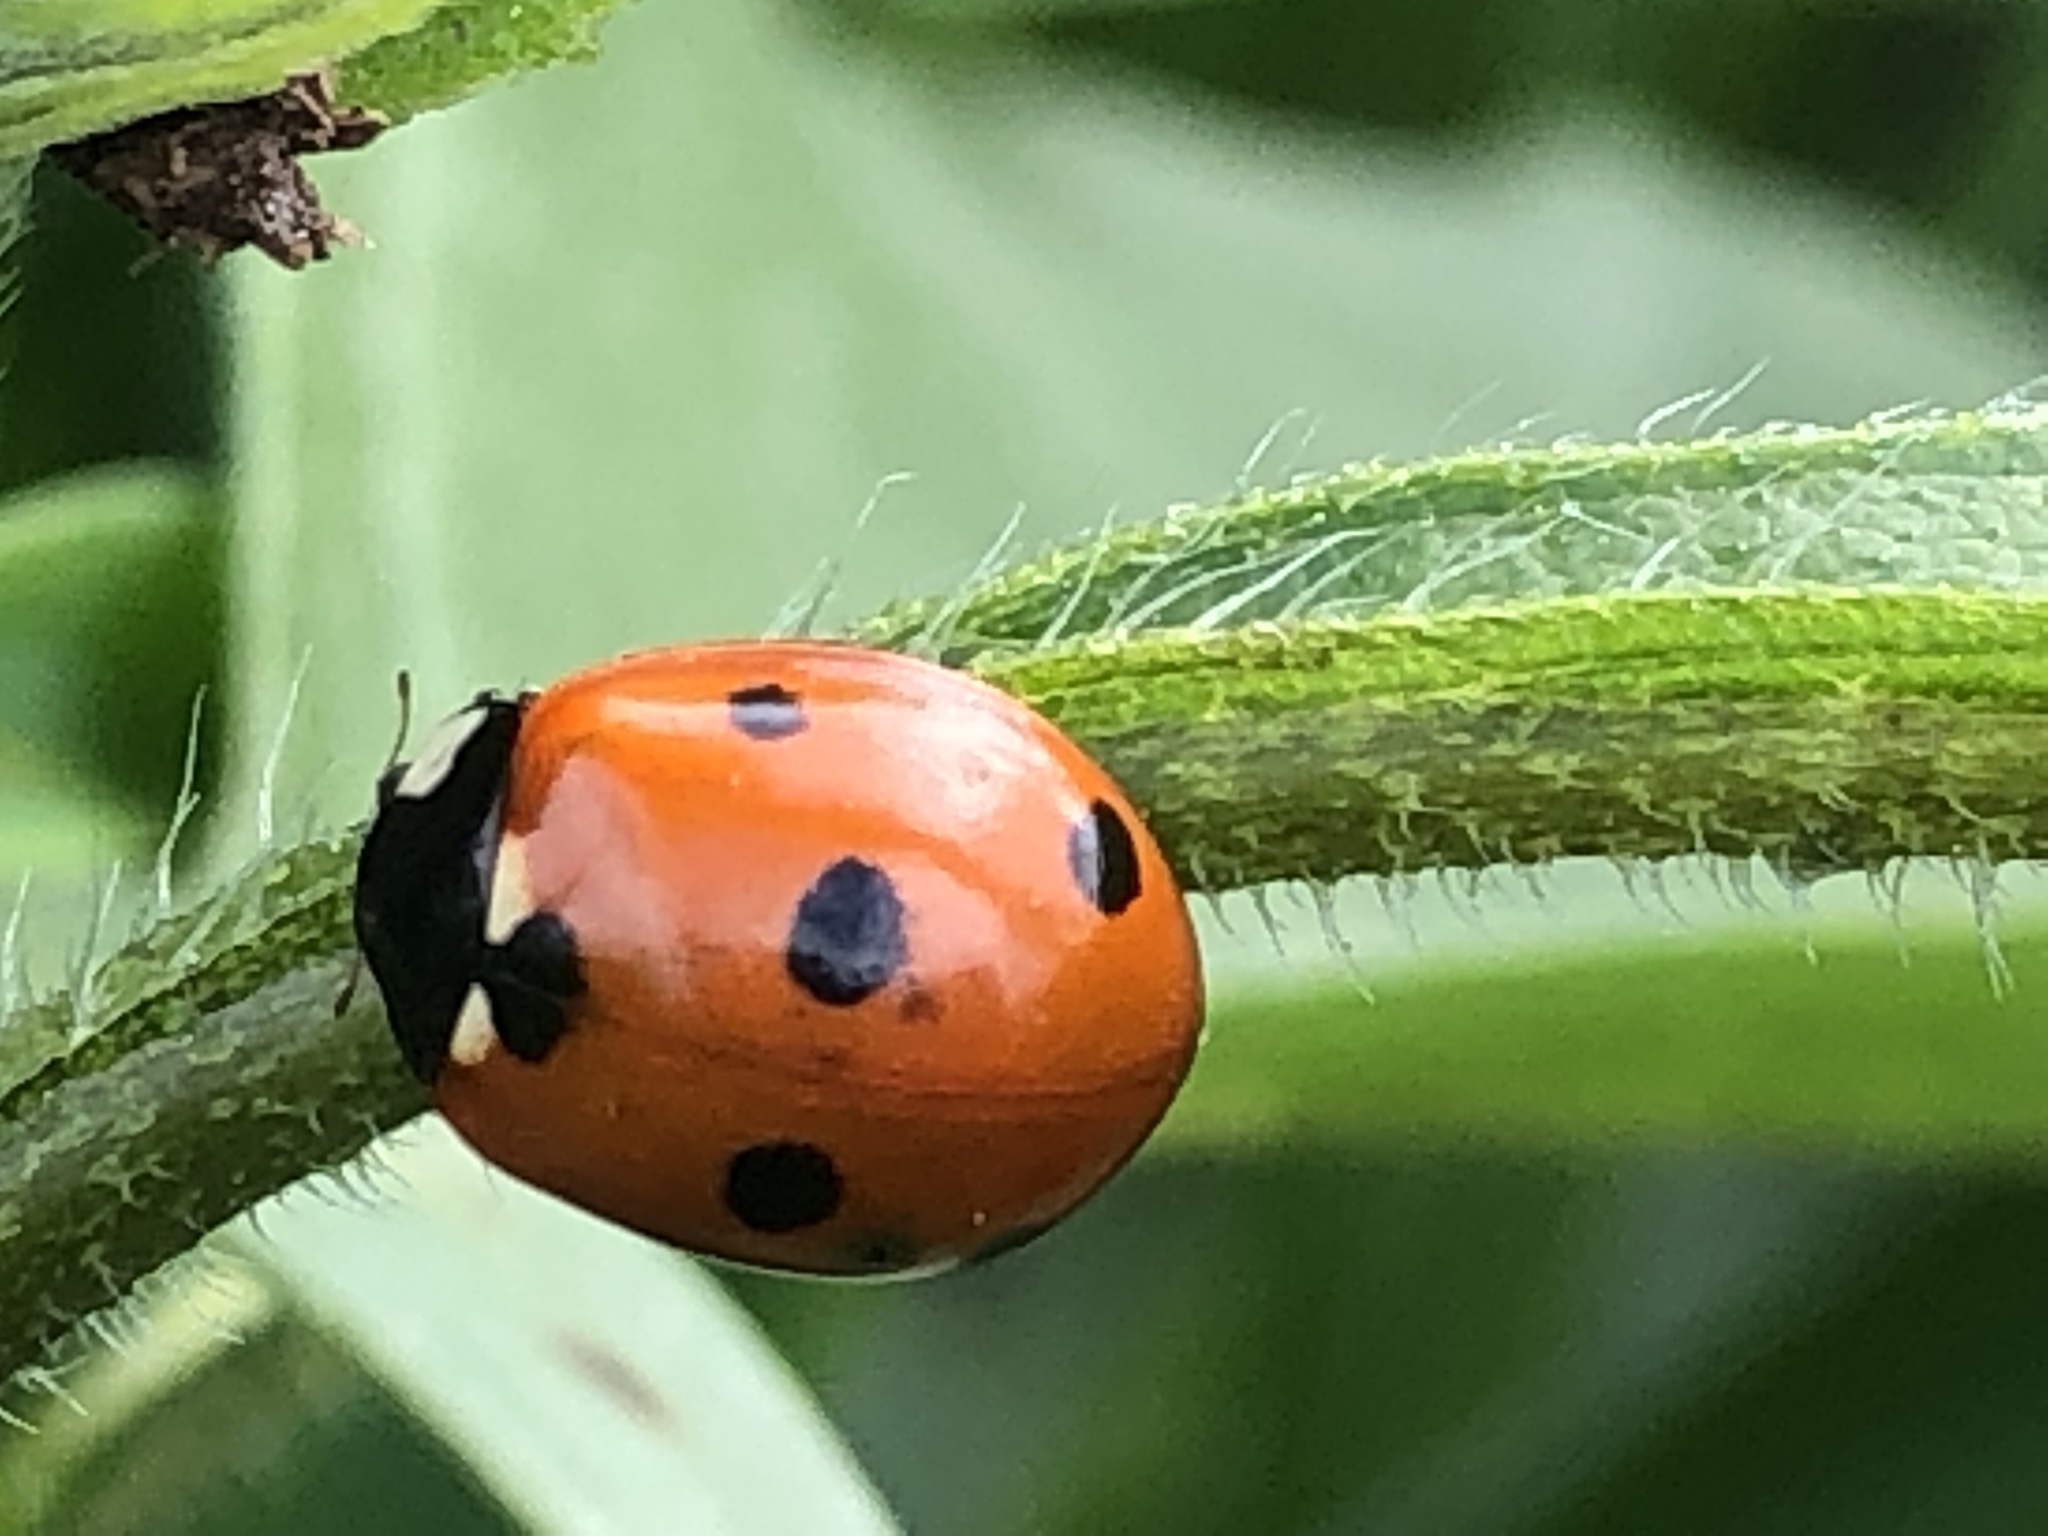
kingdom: Animalia
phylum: Arthropoda
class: Insecta
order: Coleoptera
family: Coccinellidae
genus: Coccinella
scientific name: Coccinella septempunctata
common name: Sevenspotted lady beetle
